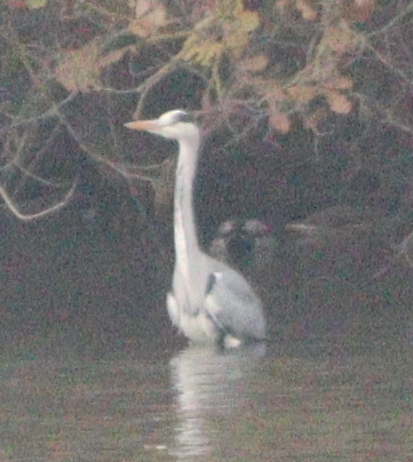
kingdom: Animalia
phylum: Chordata
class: Aves
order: Pelecaniformes
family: Ardeidae
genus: Ardea
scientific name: Ardea cinerea
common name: Grey heron
